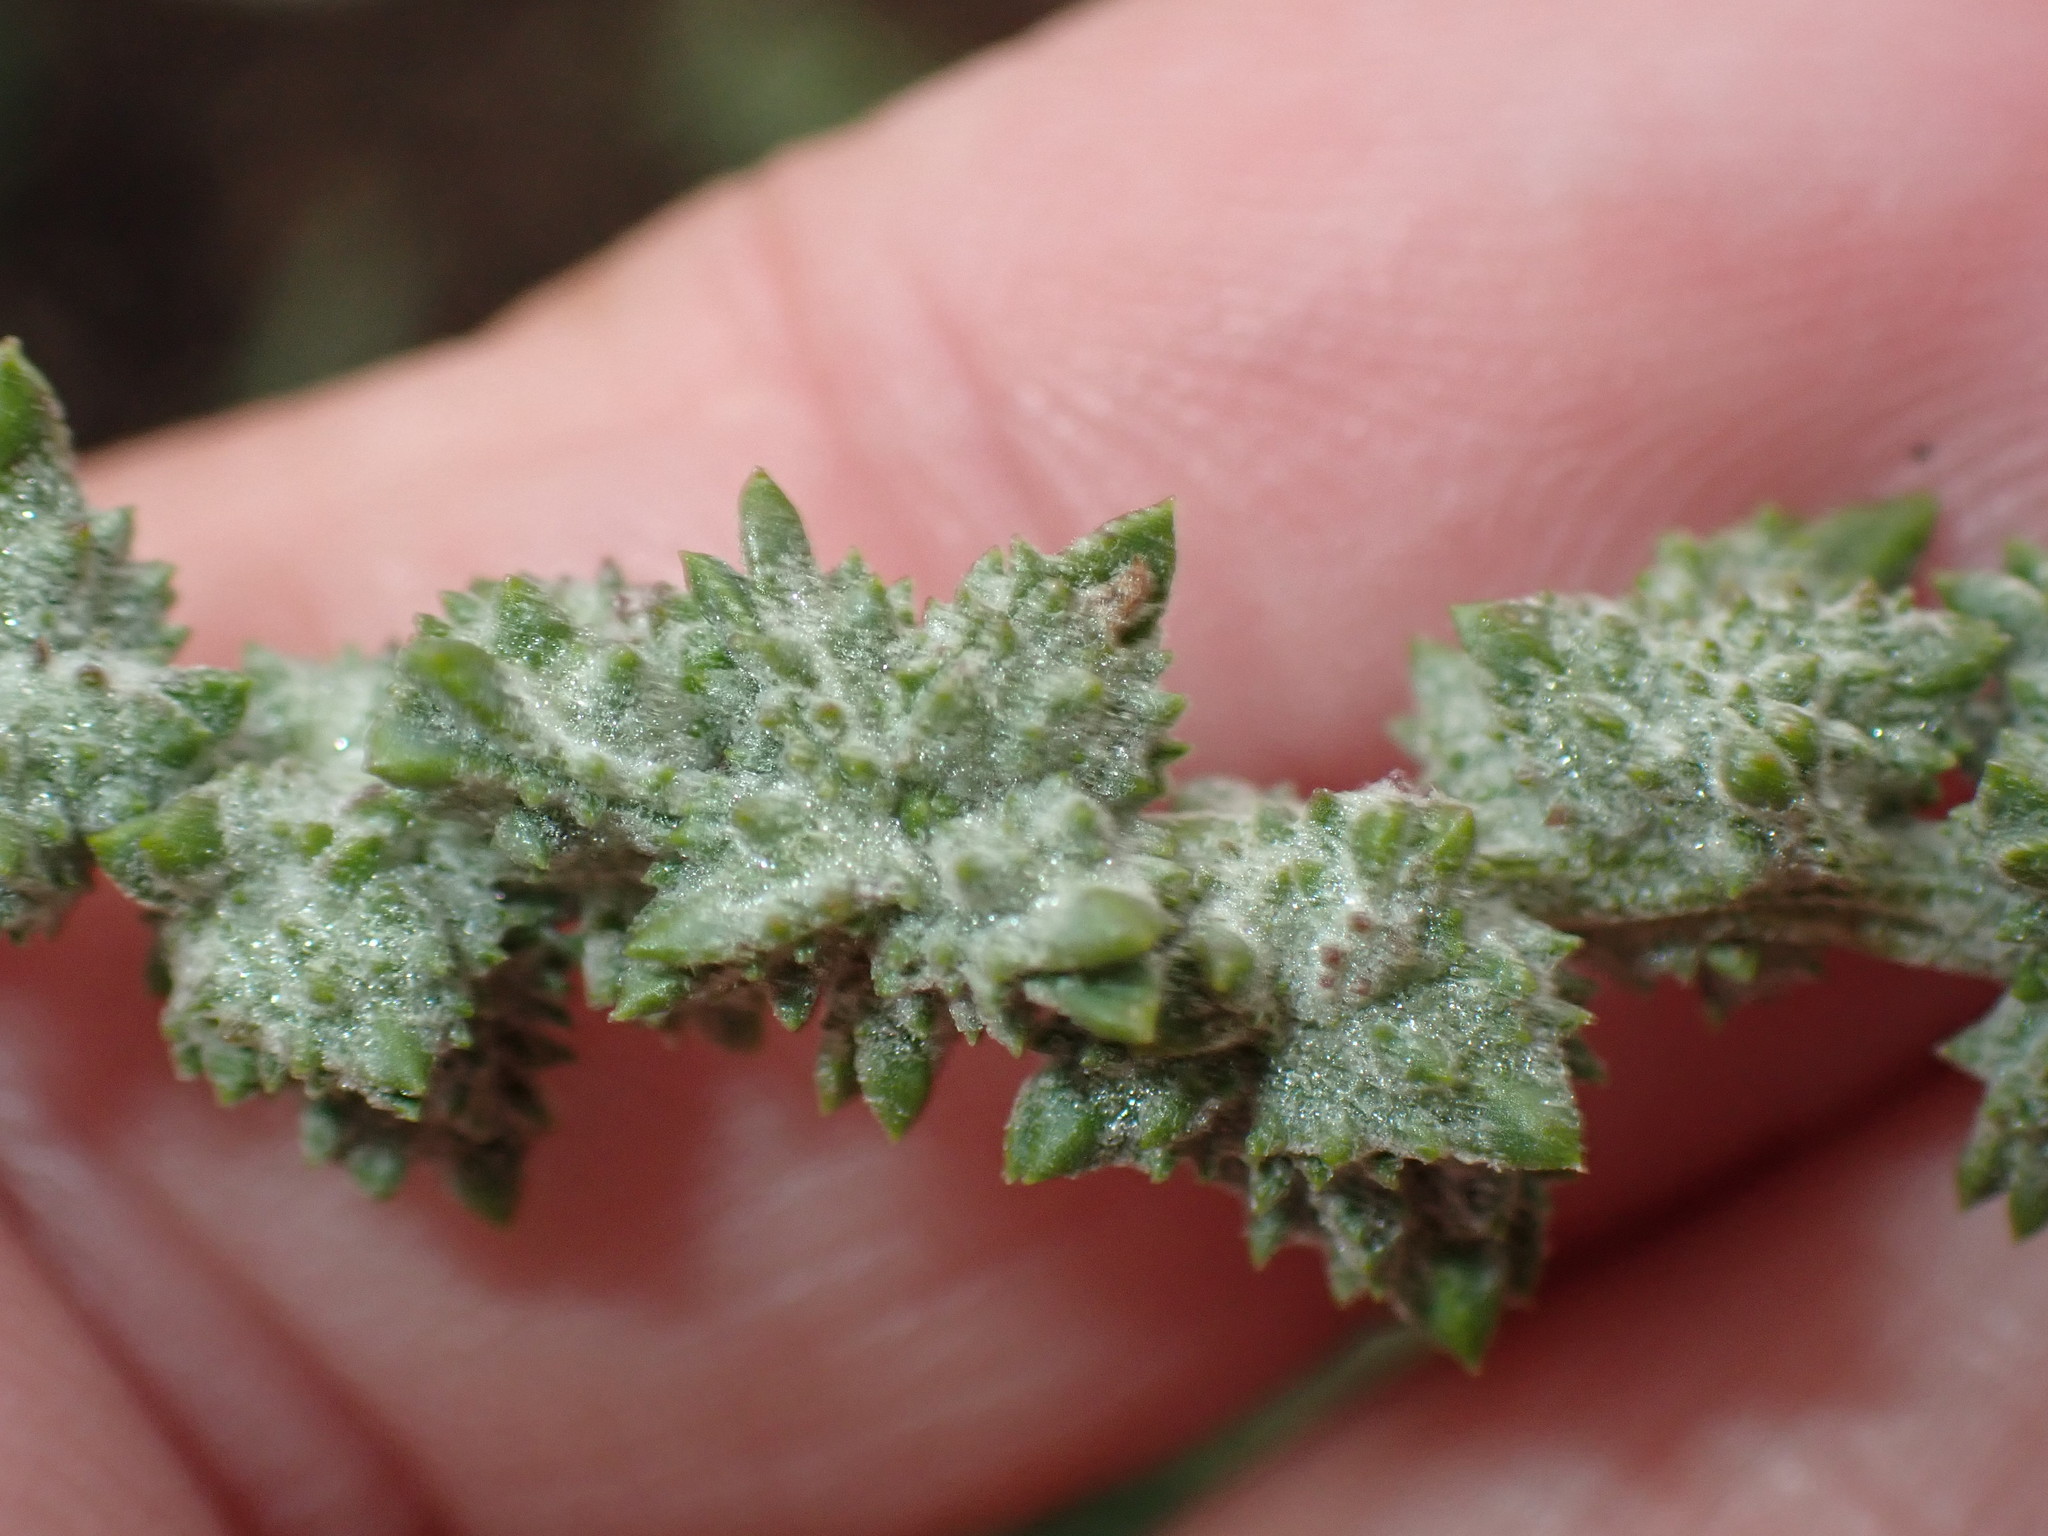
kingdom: Plantae
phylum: Tracheophyta
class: Magnoliopsida
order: Caryophyllales
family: Amaranthaceae
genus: Atriplex
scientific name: Atriplex littoralis
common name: Grass-leaved orache
